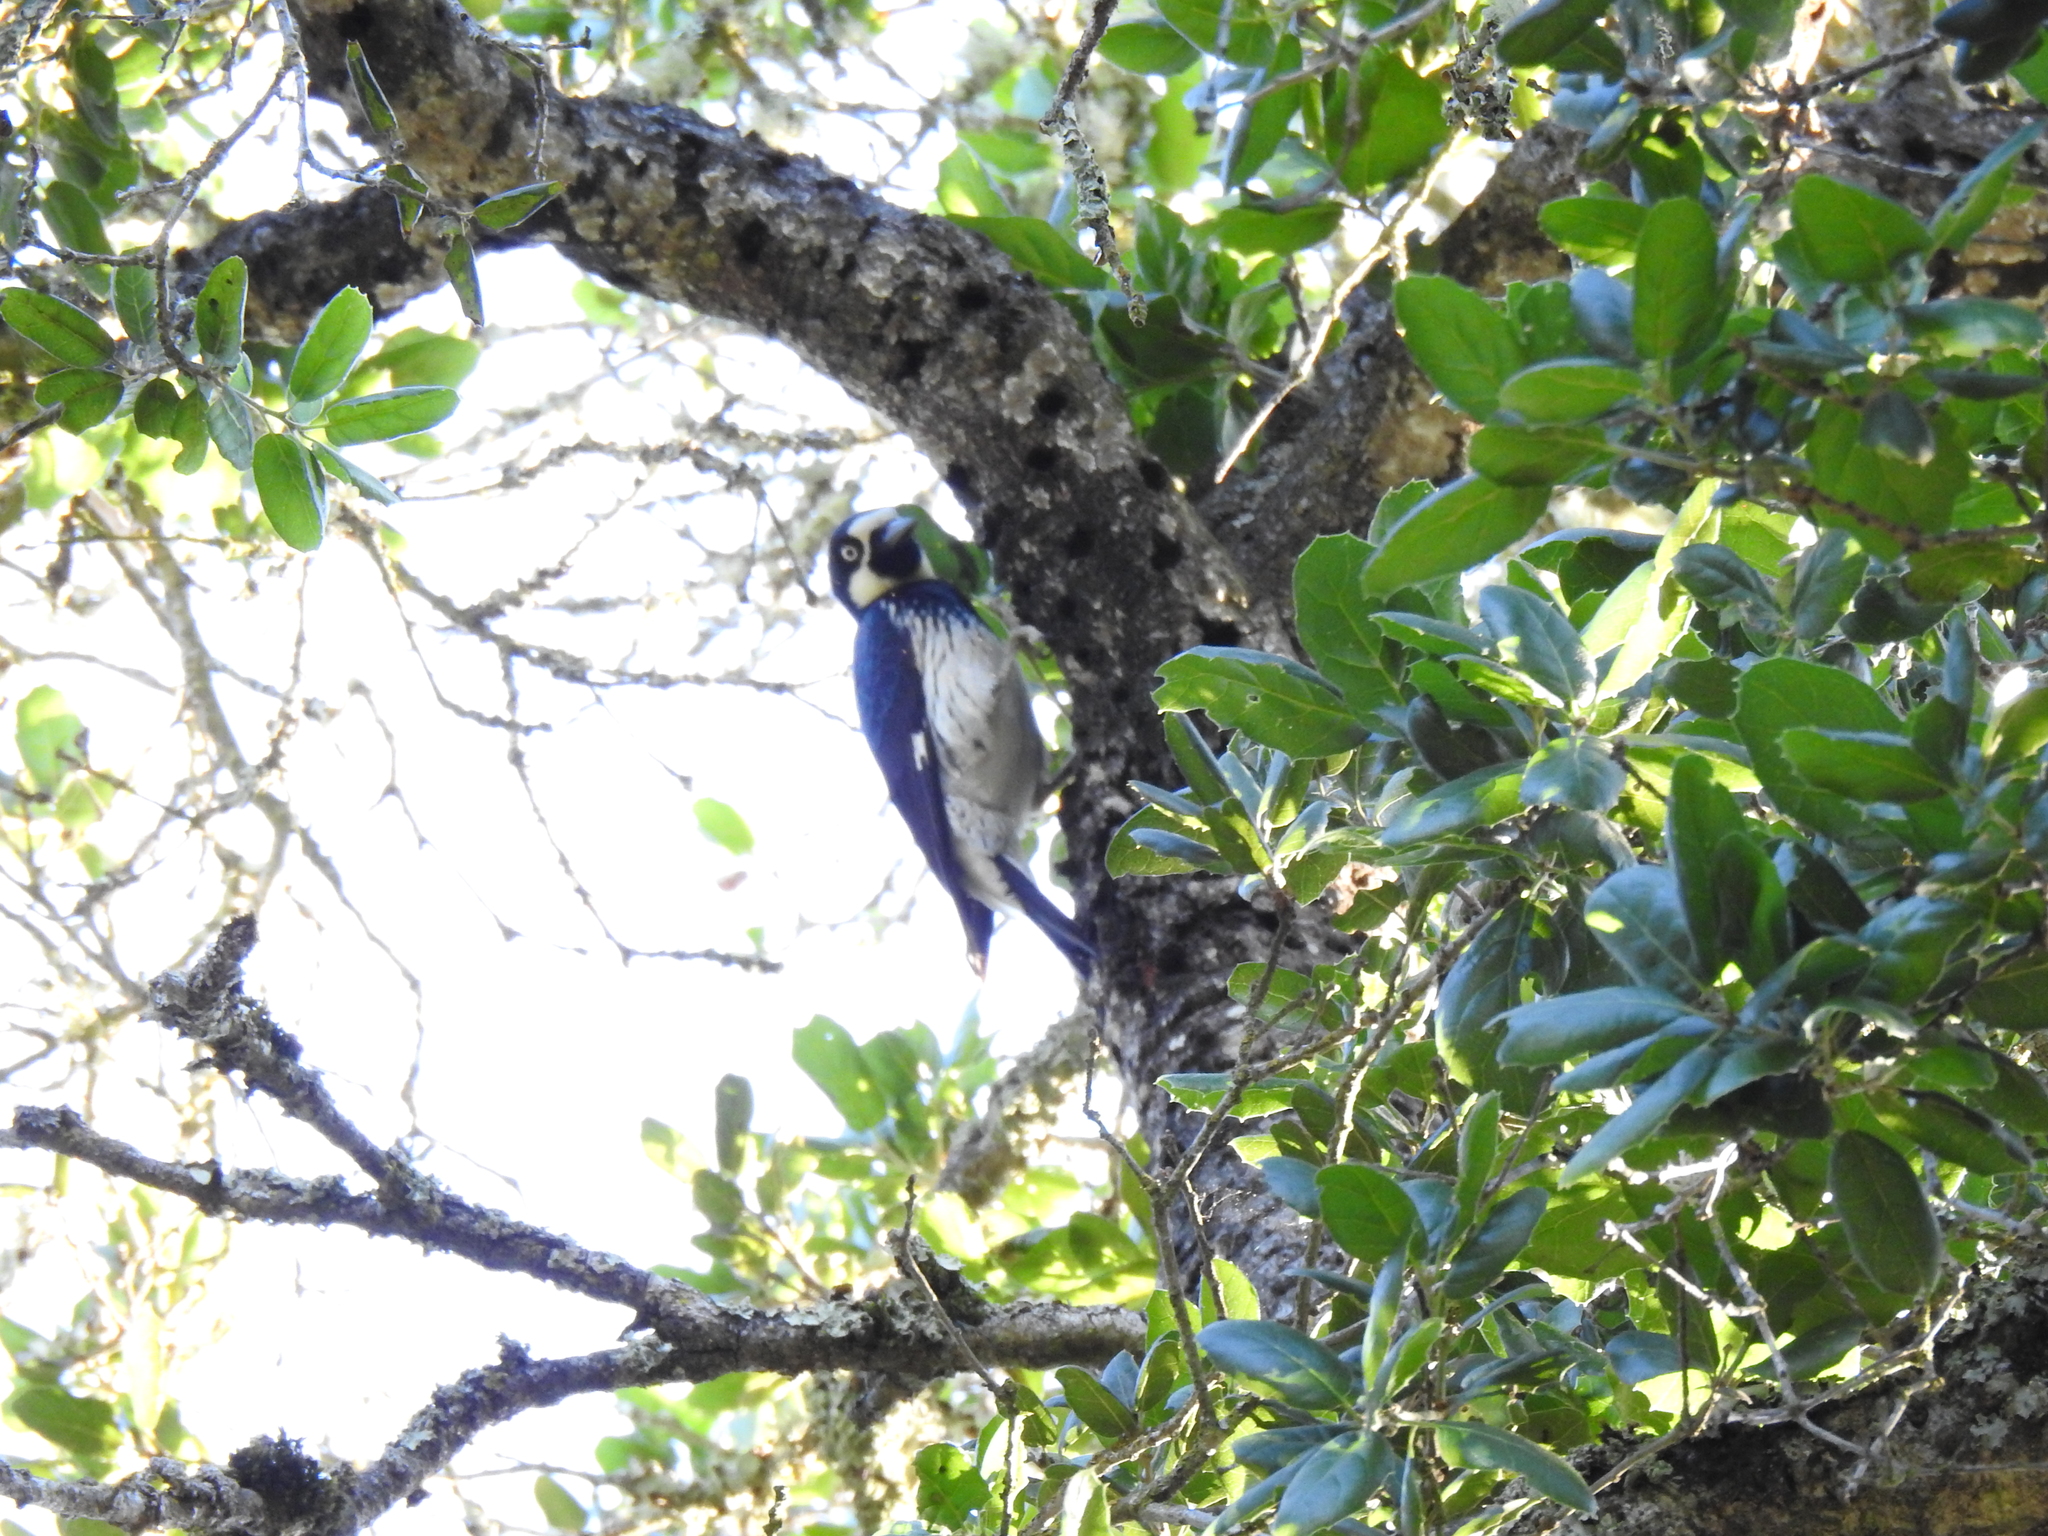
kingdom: Animalia
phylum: Chordata
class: Aves
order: Piciformes
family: Picidae
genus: Melanerpes
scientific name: Melanerpes formicivorus
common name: Acorn woodpecker
